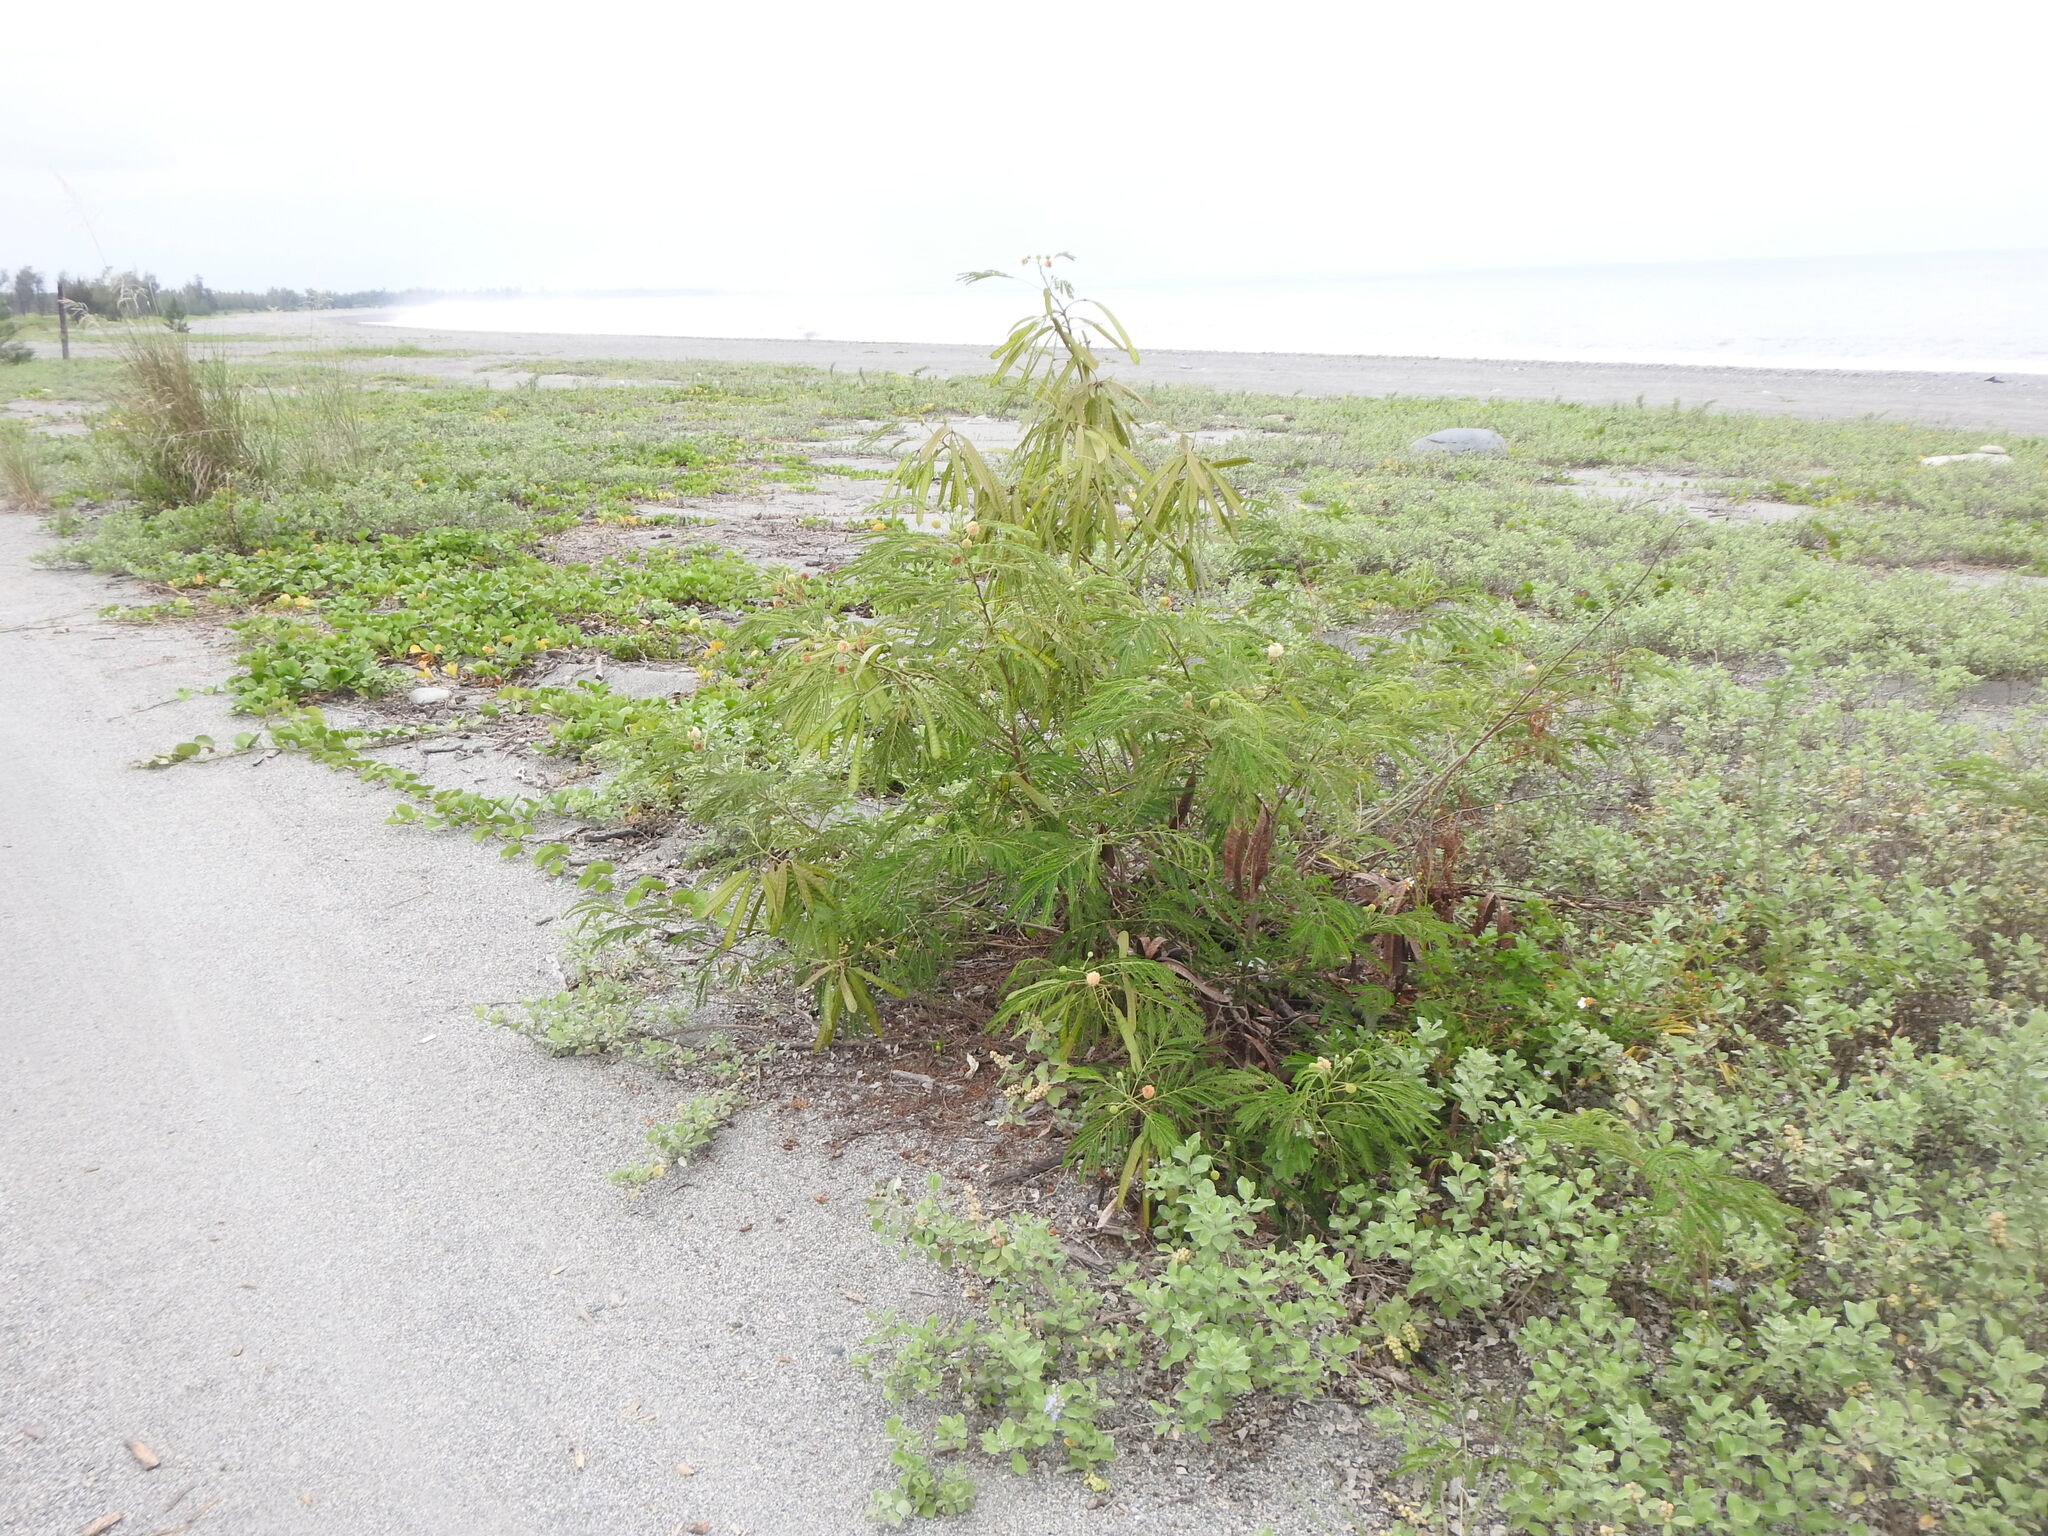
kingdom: Plantae
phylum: Tracheophyta
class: Magnoliopsida
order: Fabales
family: Fabaceae
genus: Leucaena
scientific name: Leucaena leucocephala
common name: White leadtree
